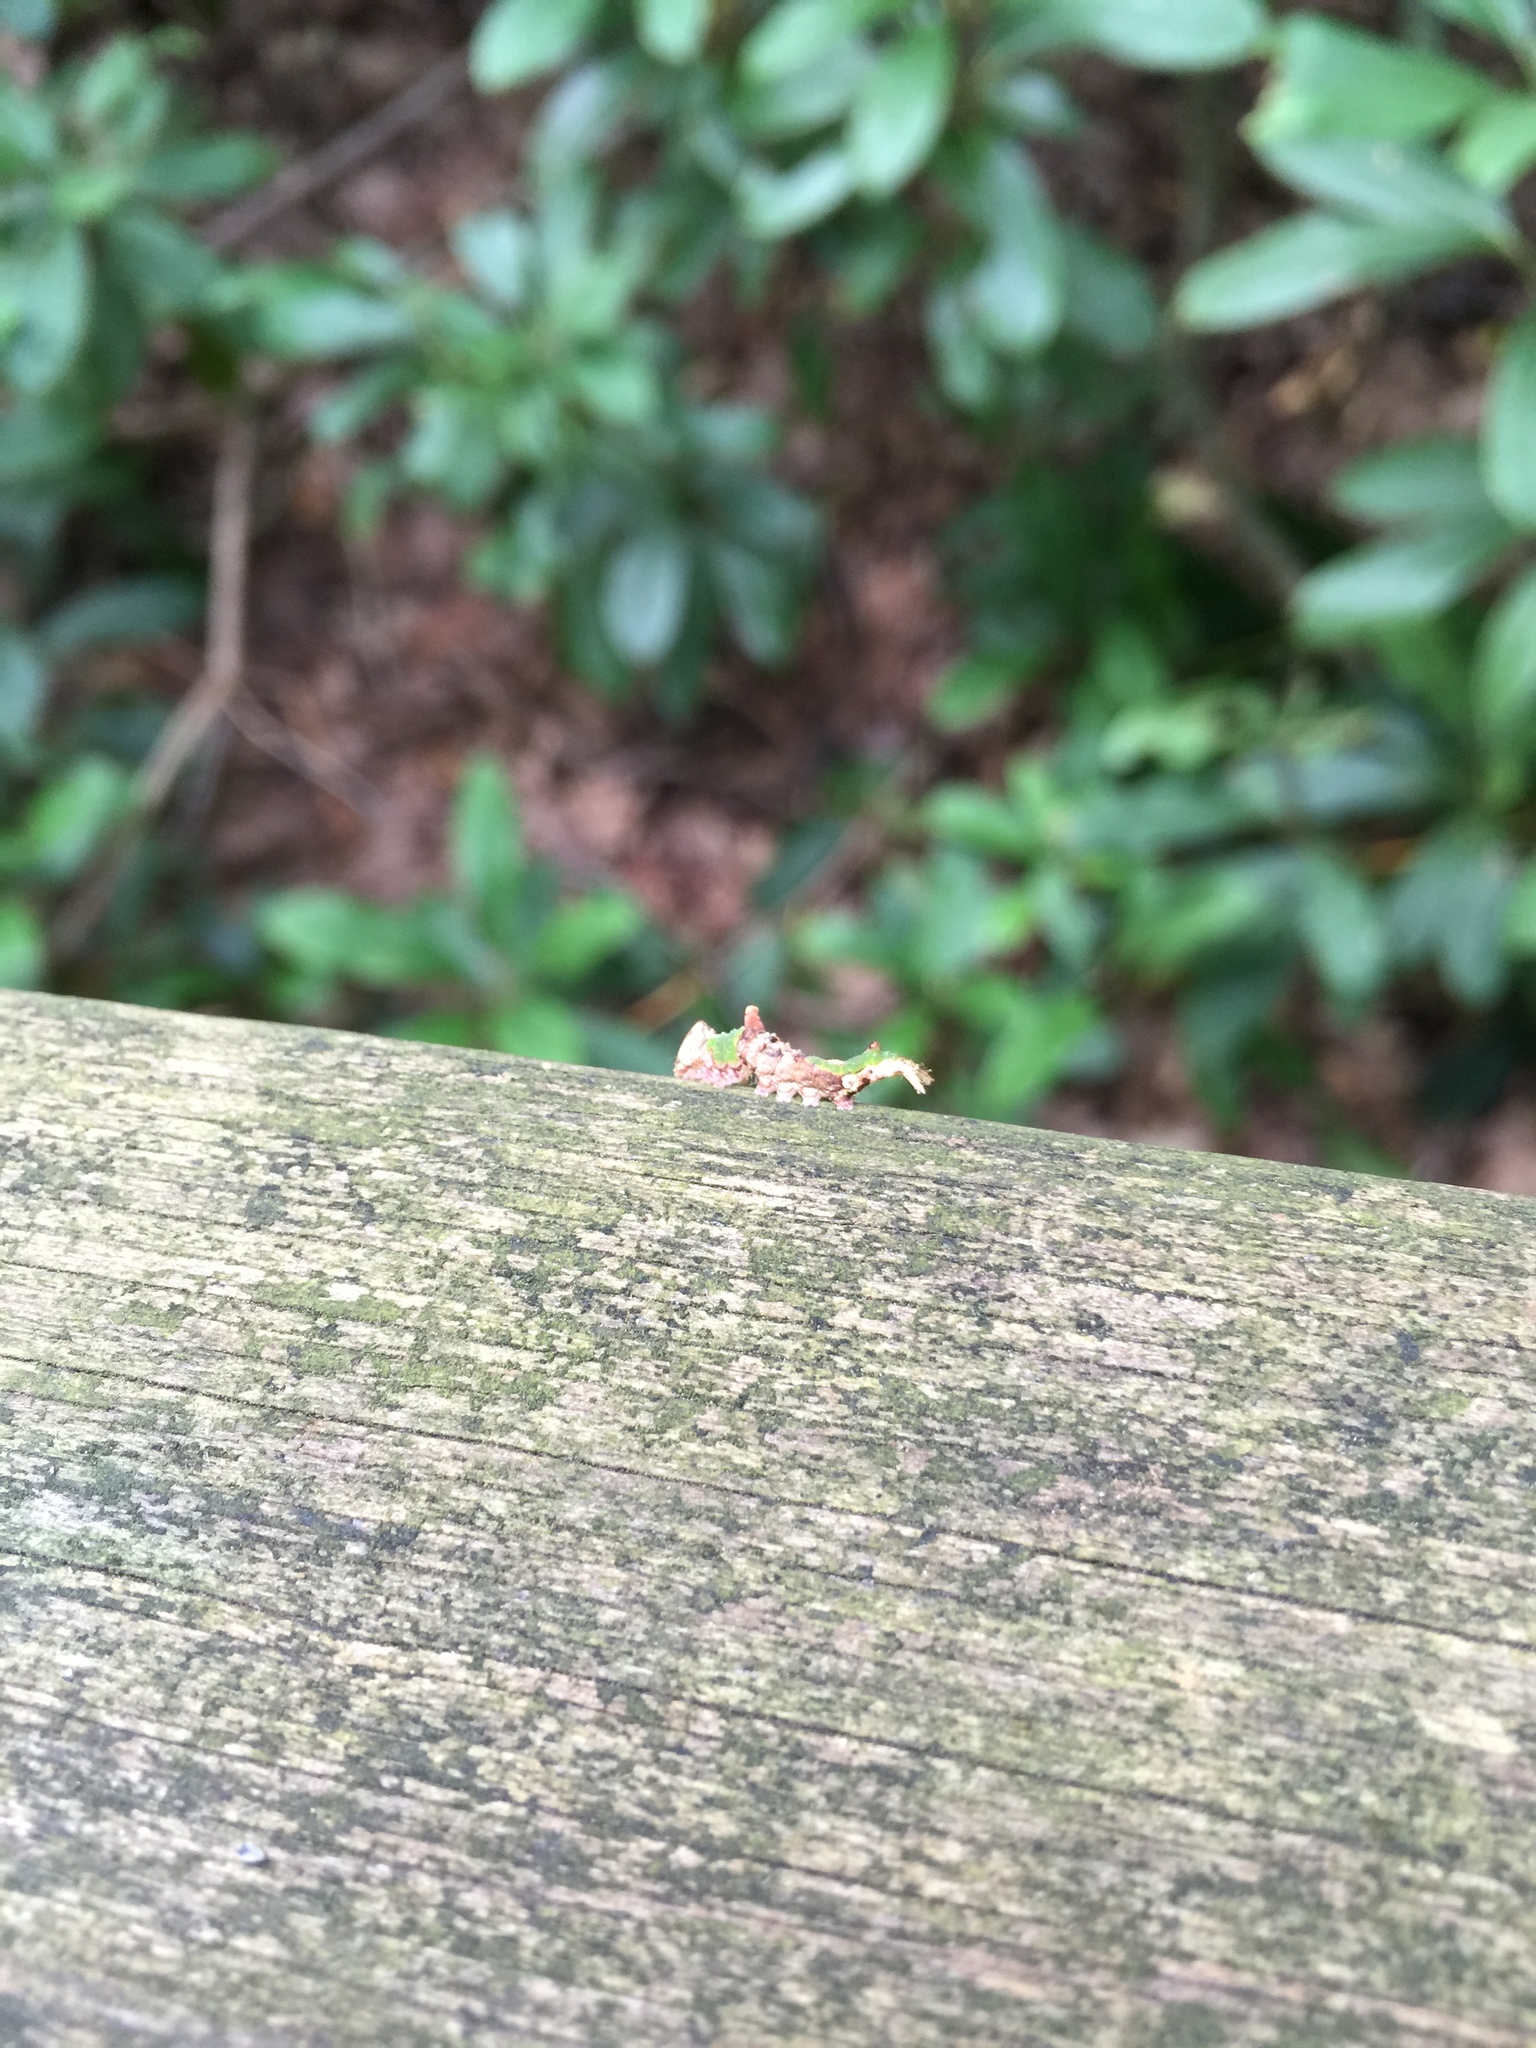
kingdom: Animalia
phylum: Arthropoda
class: Insecta
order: Lepidoptera
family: Notodontidae
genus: Oligocentria
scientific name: Oligocentria Ianassa lignicolor
